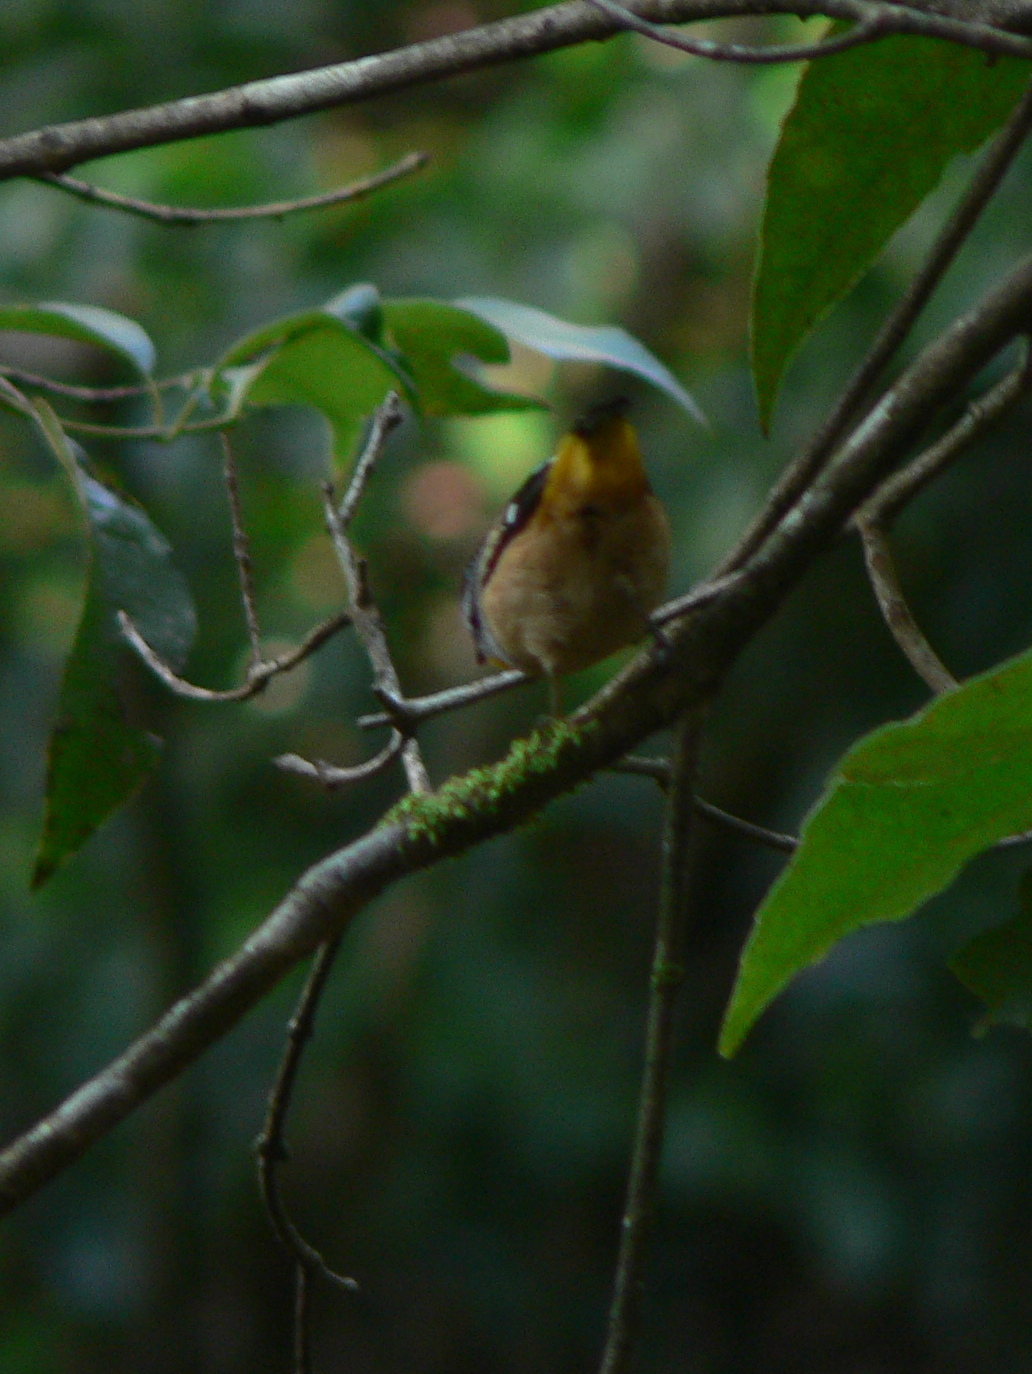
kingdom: Animalia
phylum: Chordata
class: Aves
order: Passeriformes
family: Pardalotidae
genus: Pardalotus
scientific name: Pardalotus punctatus
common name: Spotted pardalote
